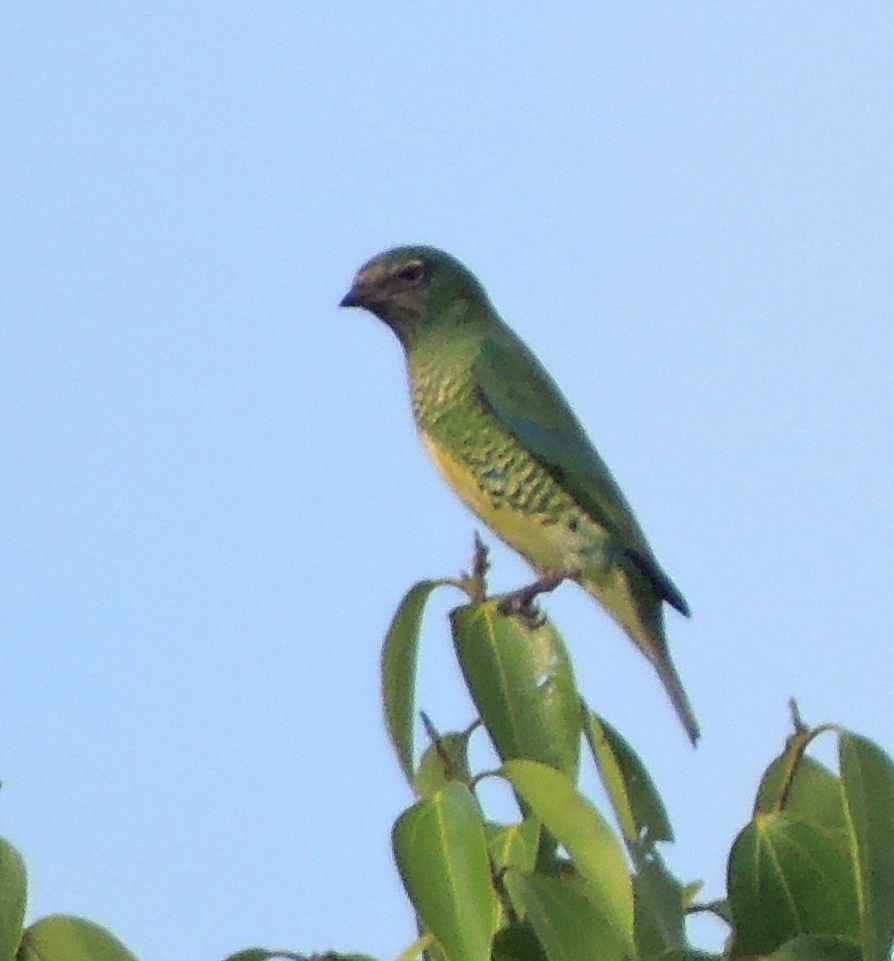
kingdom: Animalia
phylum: Chordata
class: Aves
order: Passeriformes
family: Thraupidae
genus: Tersina
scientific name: Tersina viridis
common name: Swallow tanager
